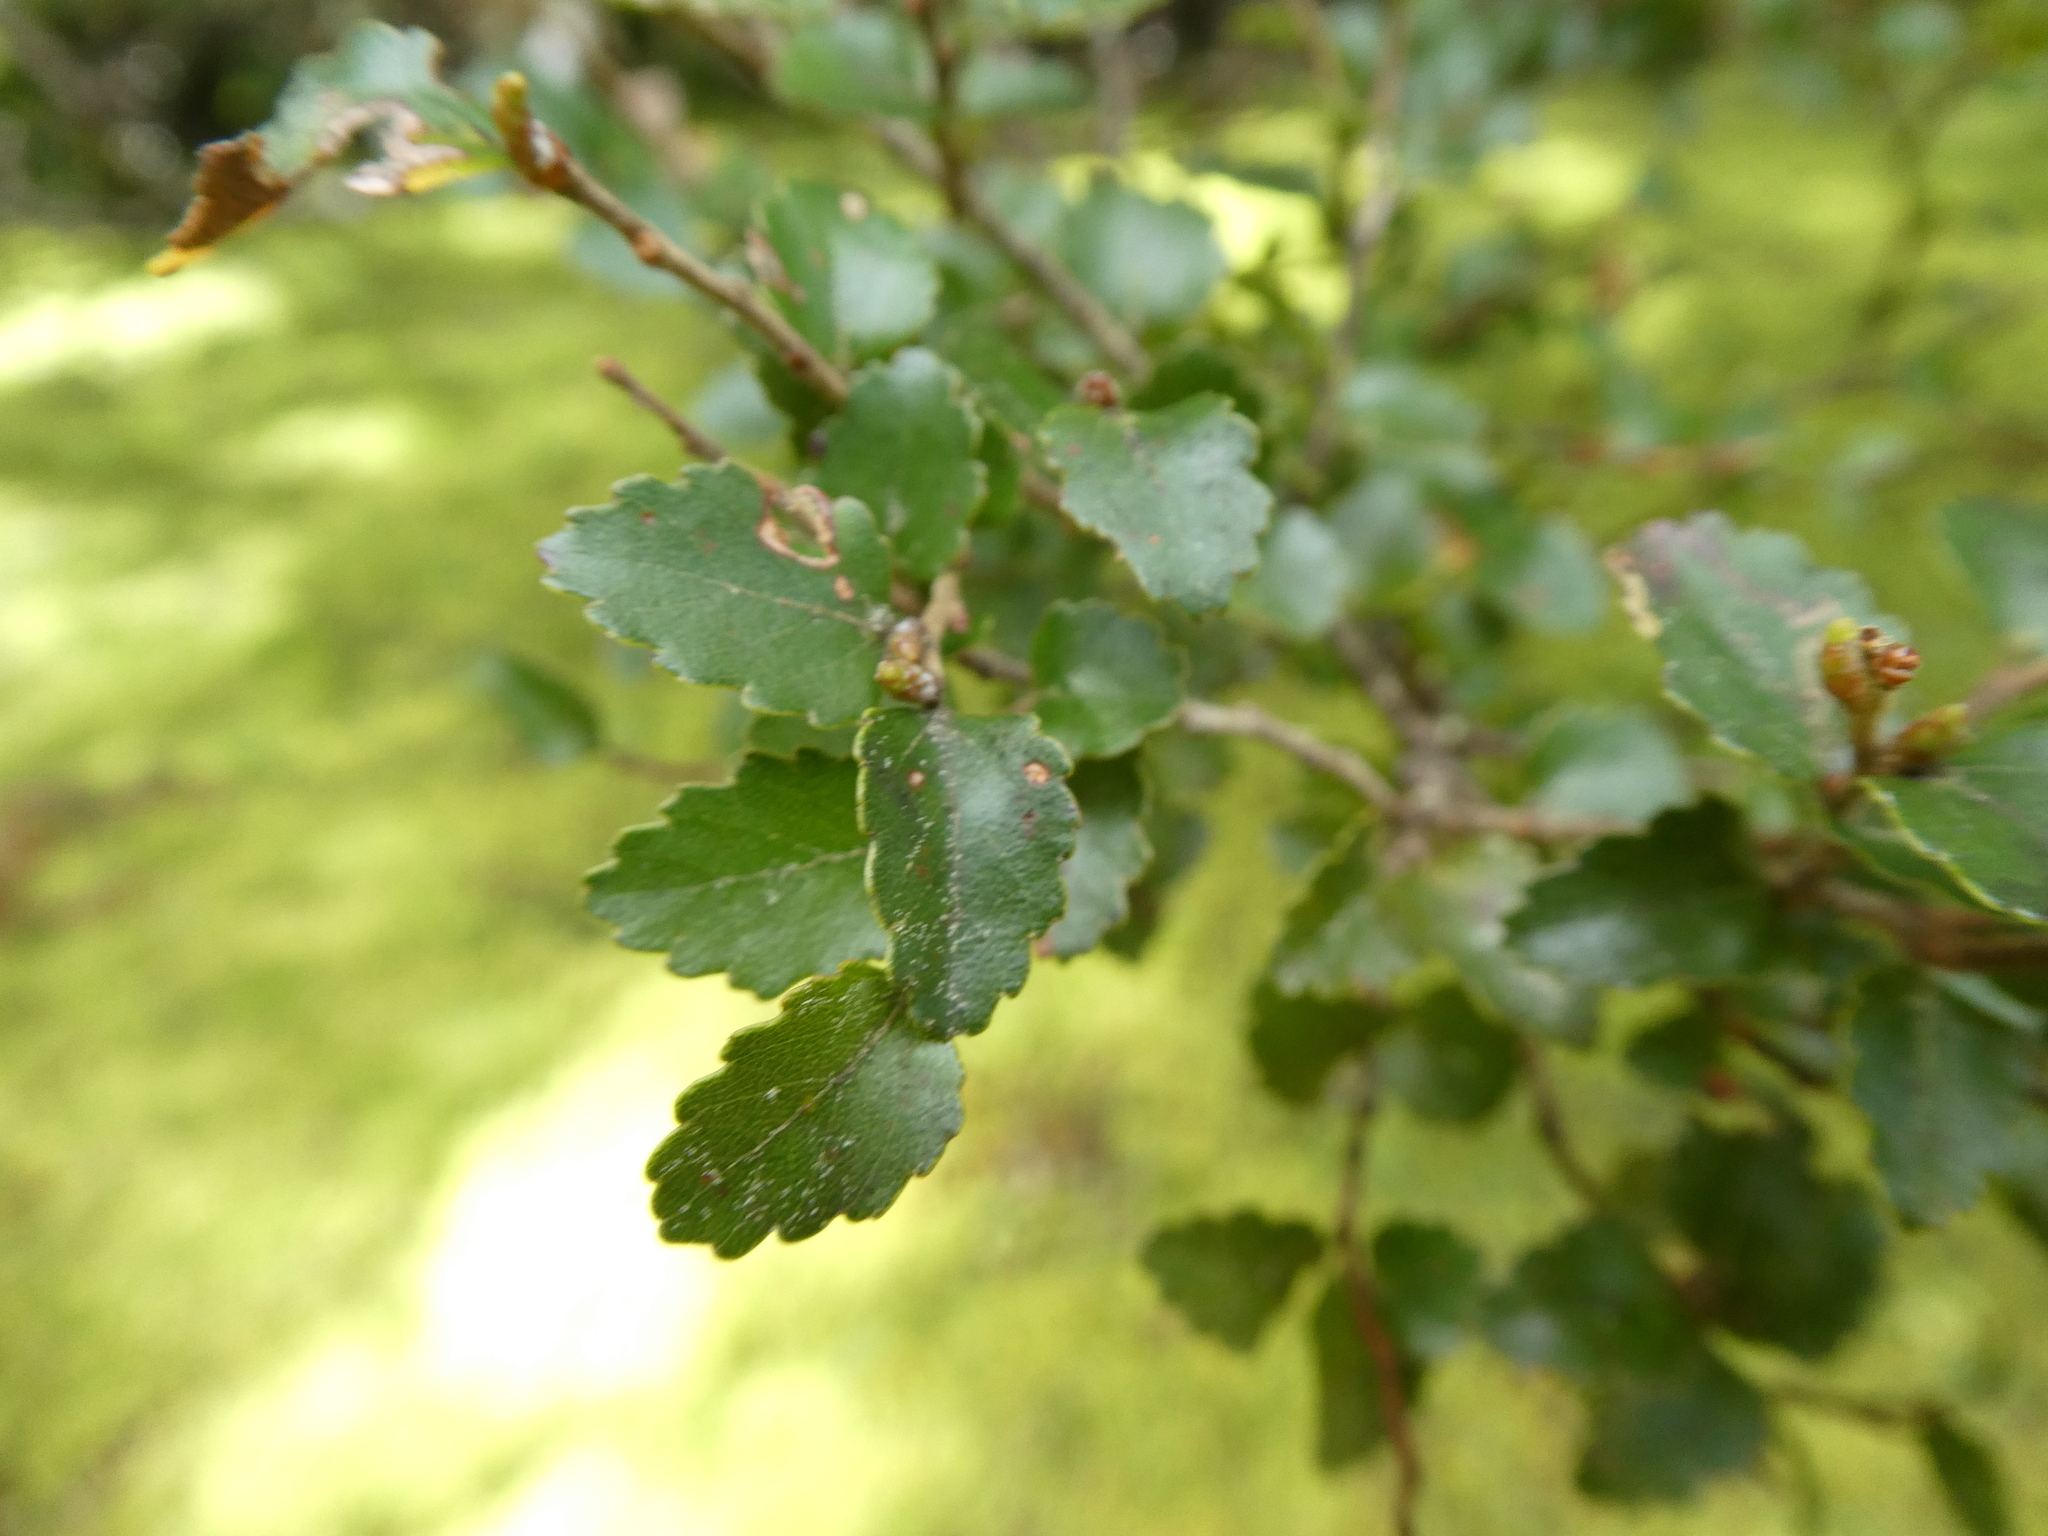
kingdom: Plantae
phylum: Tracheophyta
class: Magnoliopsida
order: Fagales
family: Nothofagaceae
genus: Nothofagus
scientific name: Nothofagus menziesii
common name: Silver beech
